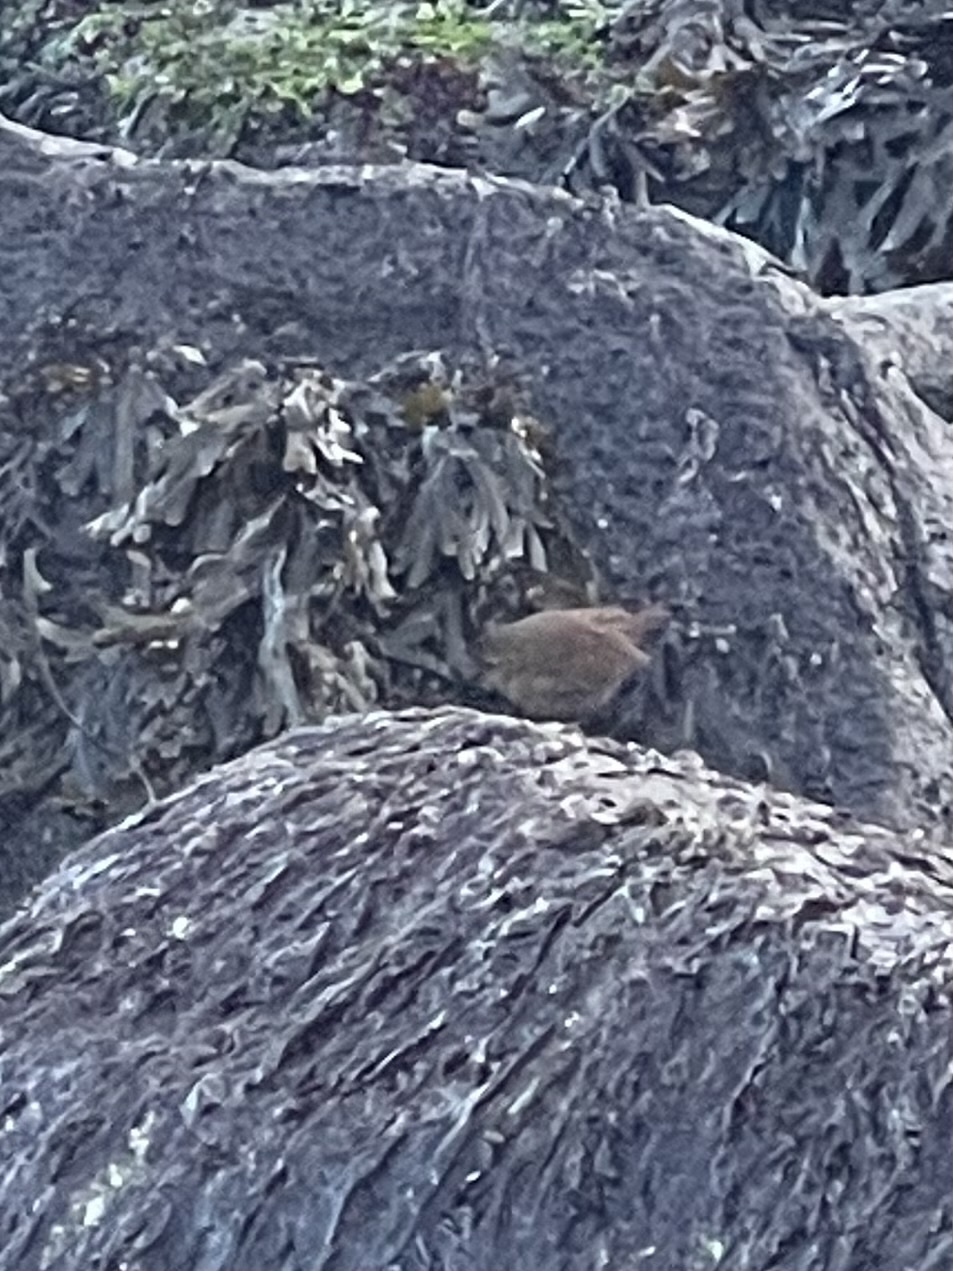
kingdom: Animalia
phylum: Chordata
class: Aves
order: Passeriformes
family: Troglodytidae
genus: Troglodytes
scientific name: Troglodytes pacificus
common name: Pacific wren
